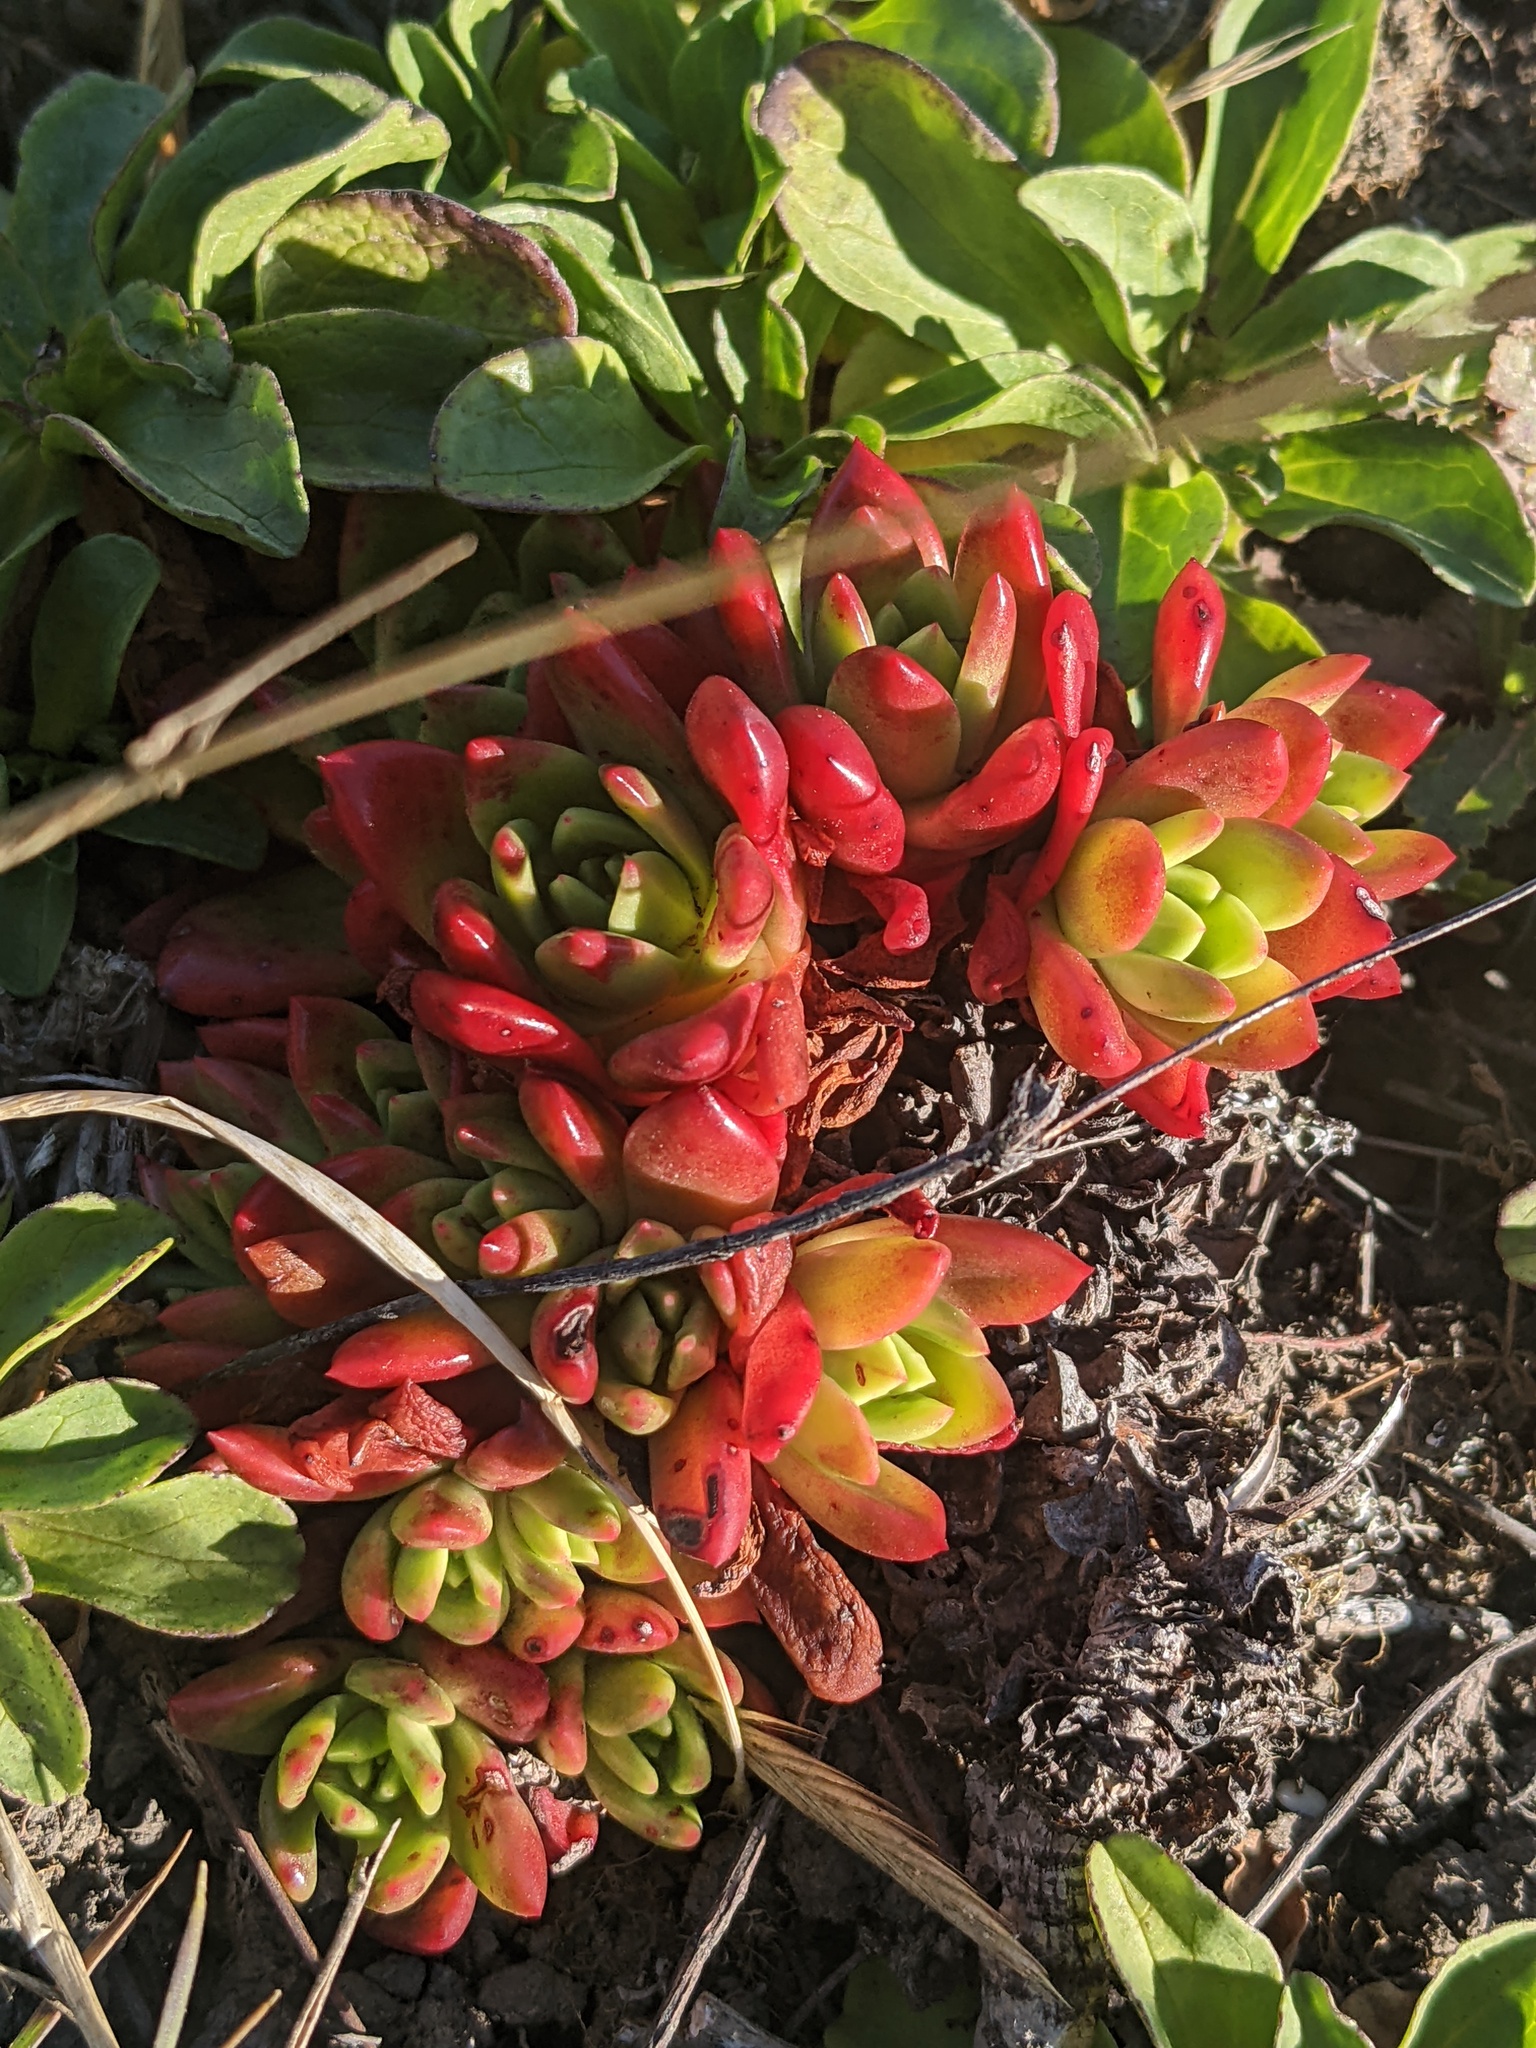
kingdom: Plantae
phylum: Tracheophyta
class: Magnoliopsida
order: Saxifragales
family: Crassulaceae
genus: Dudleya
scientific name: Dudleya farinosa
